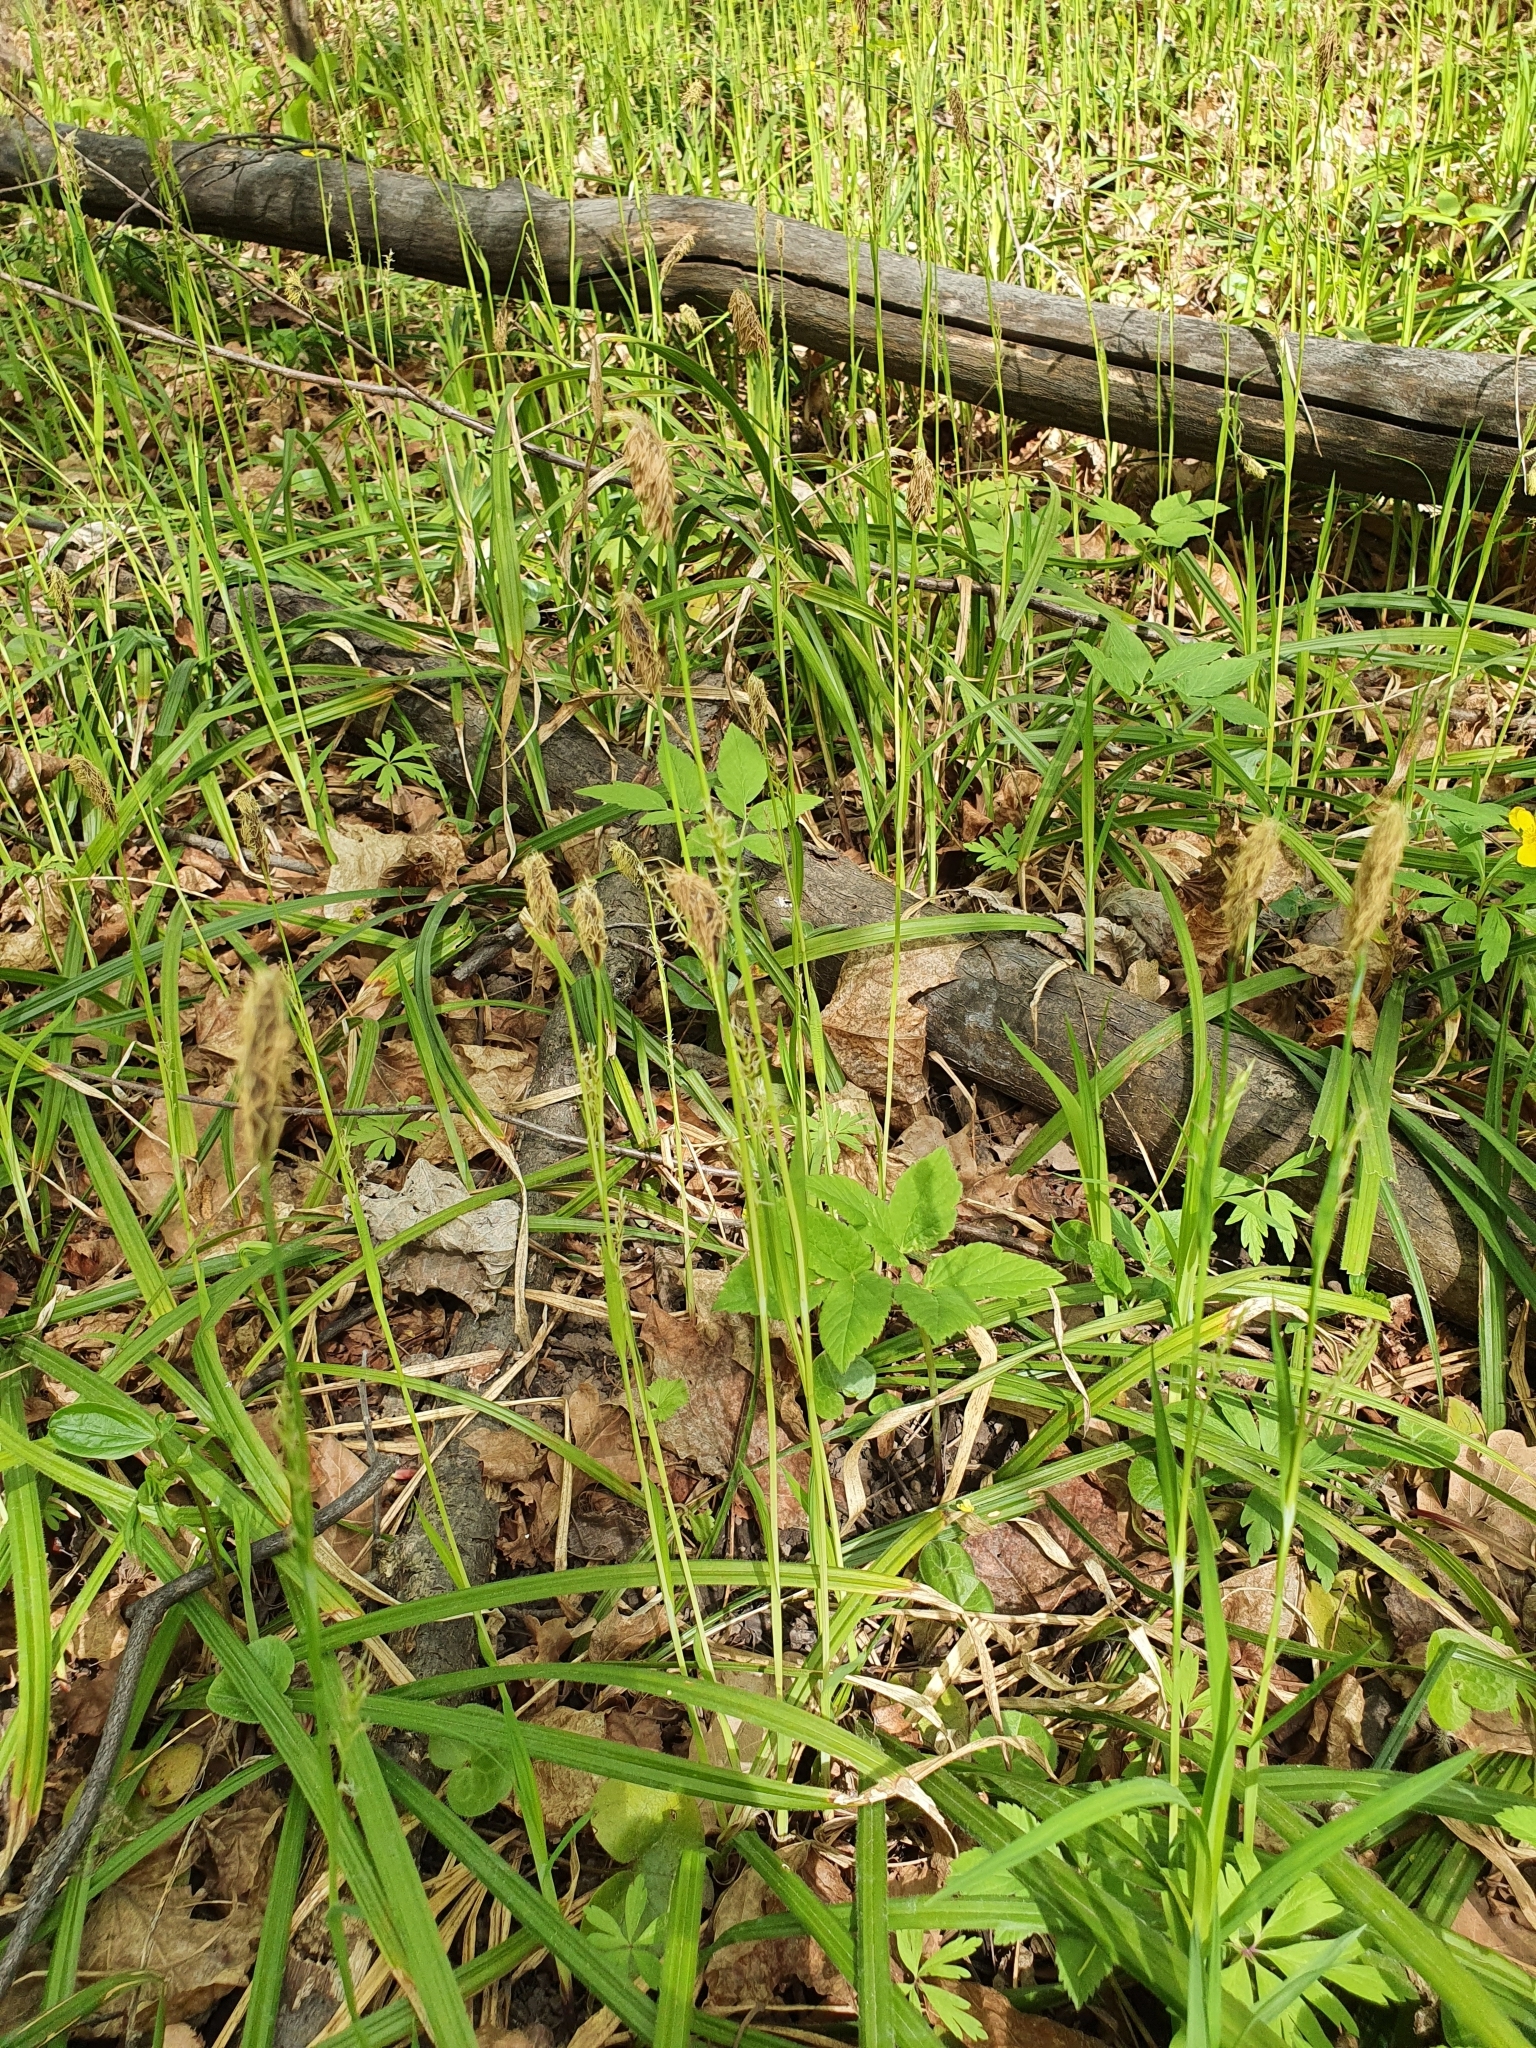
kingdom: Plantae
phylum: Tracheophyta
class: Liliopsida
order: Poales
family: Cyperaceae
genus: Carex
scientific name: Carex pilosa
